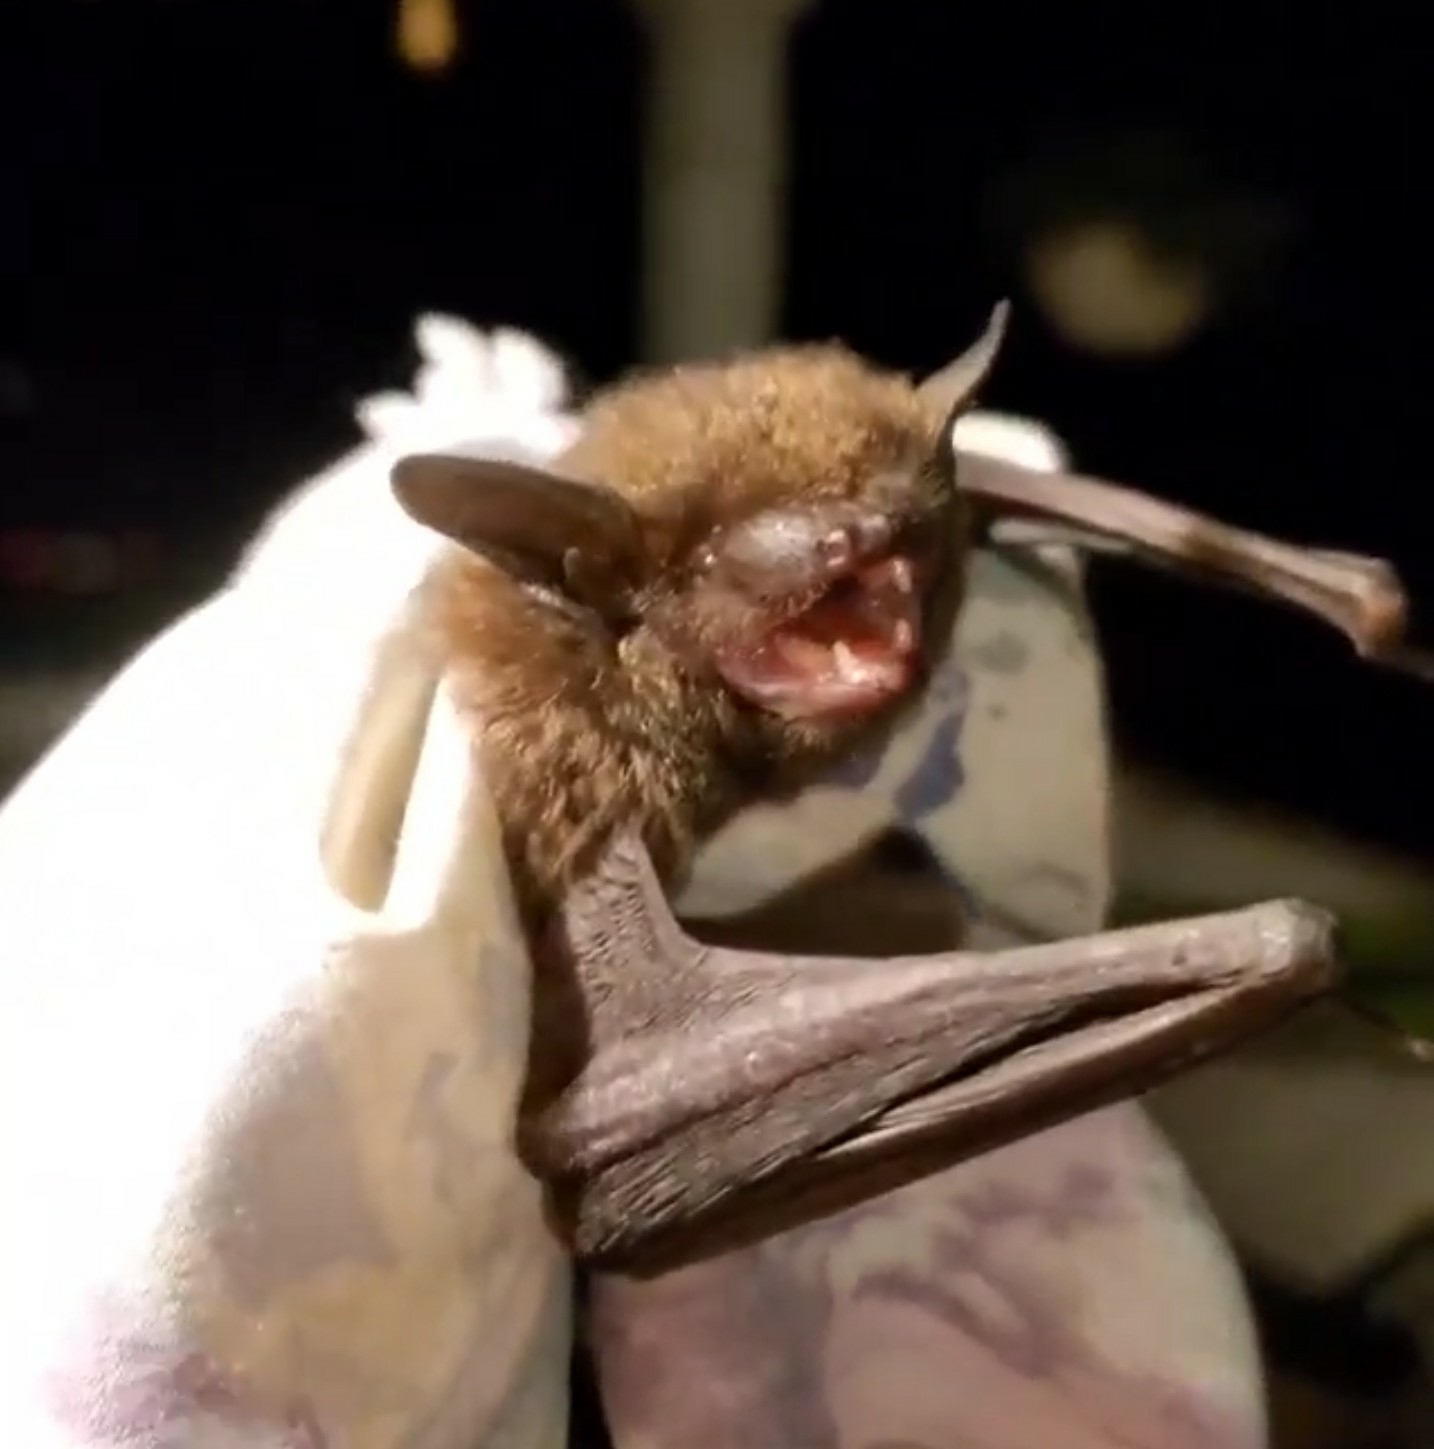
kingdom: Animalia
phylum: Chordata
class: Mammalia
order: Chiroptera
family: Vespertilionidae
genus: Eptesicus
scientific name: Eptesicus fuscus
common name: Big brown bat
